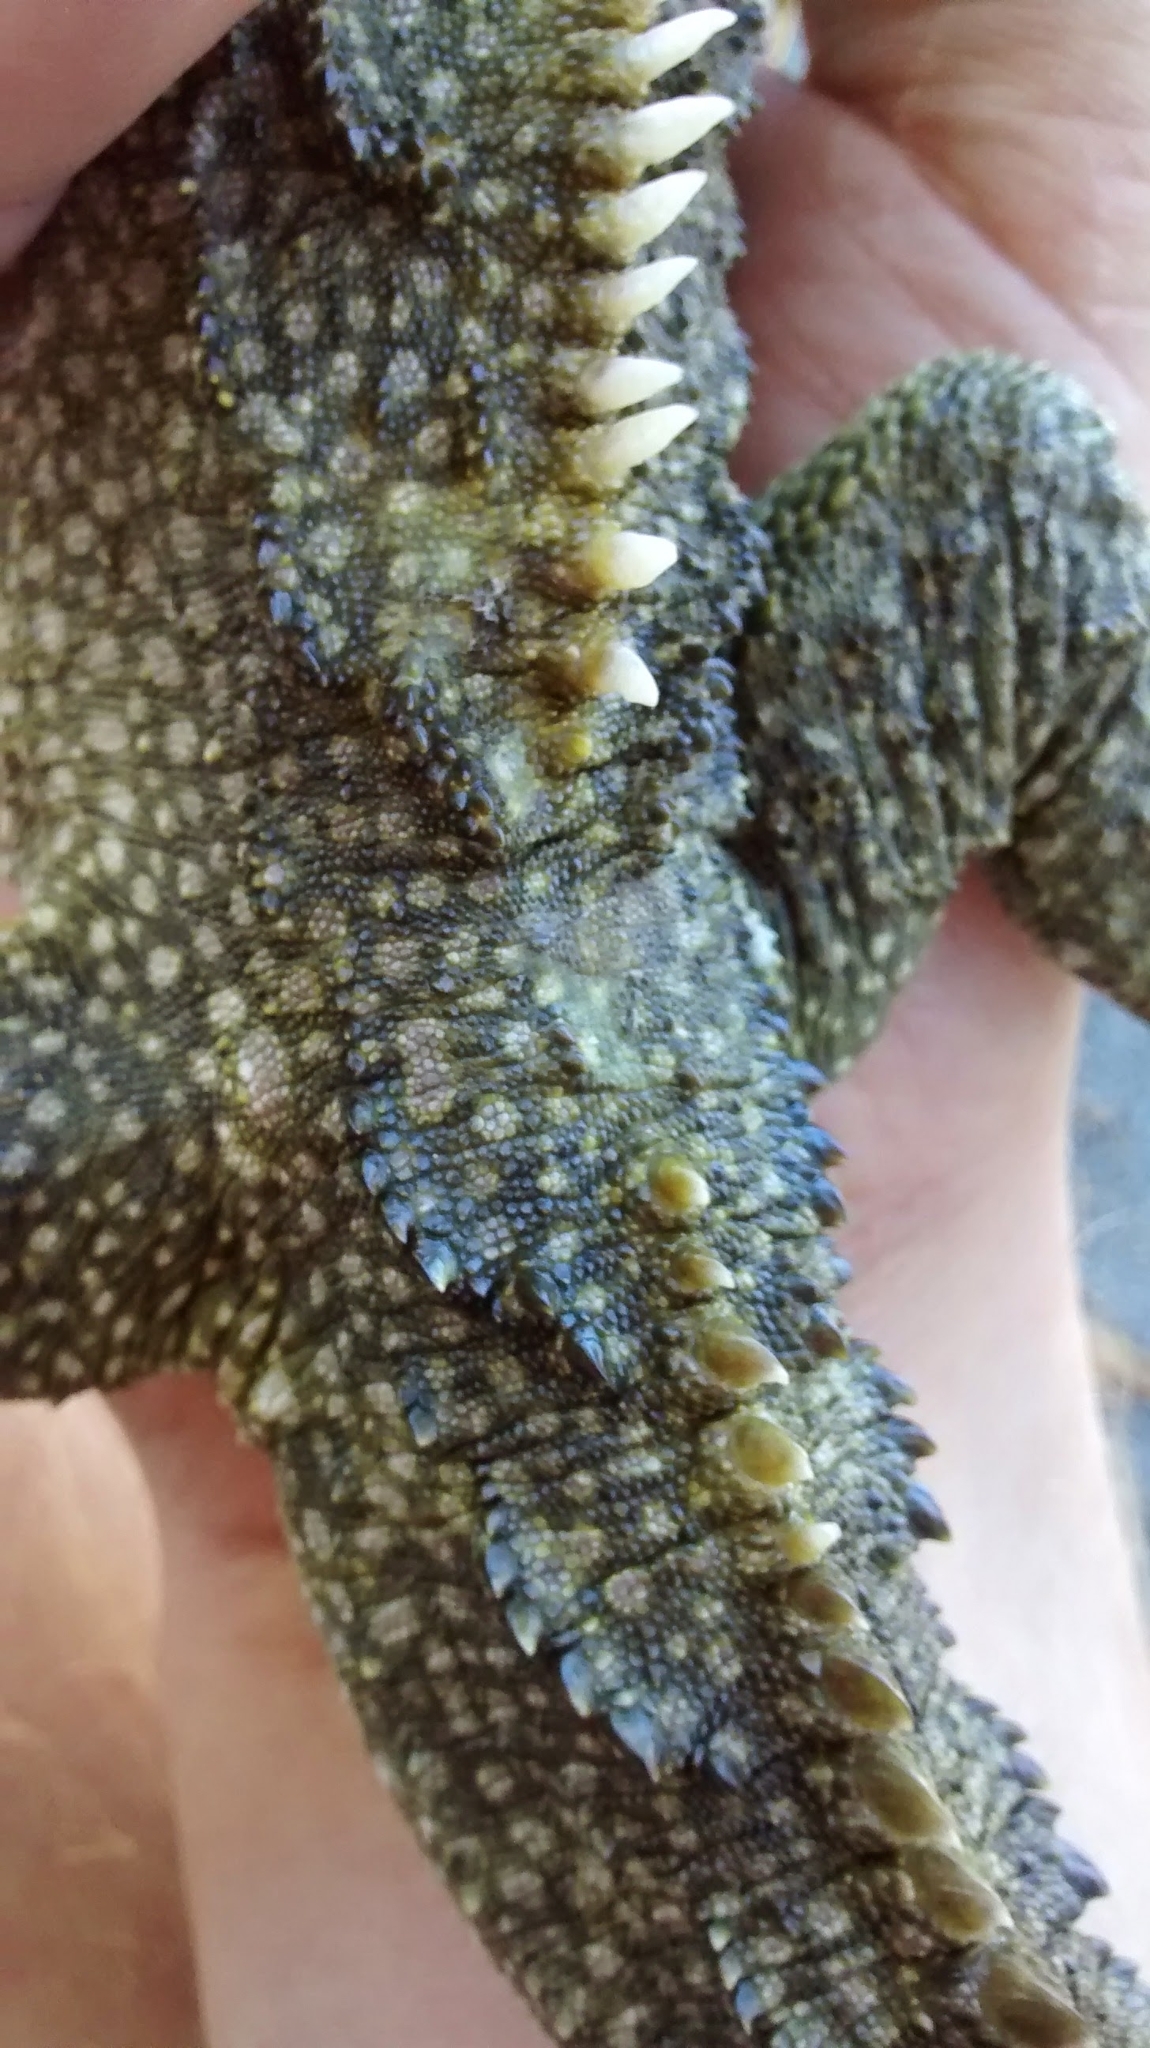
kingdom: Animalia
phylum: Chordata
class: Sphenodontia
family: Sphenodontidae
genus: Sphenodon
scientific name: Sphenodon punctatus
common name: Tuatara
